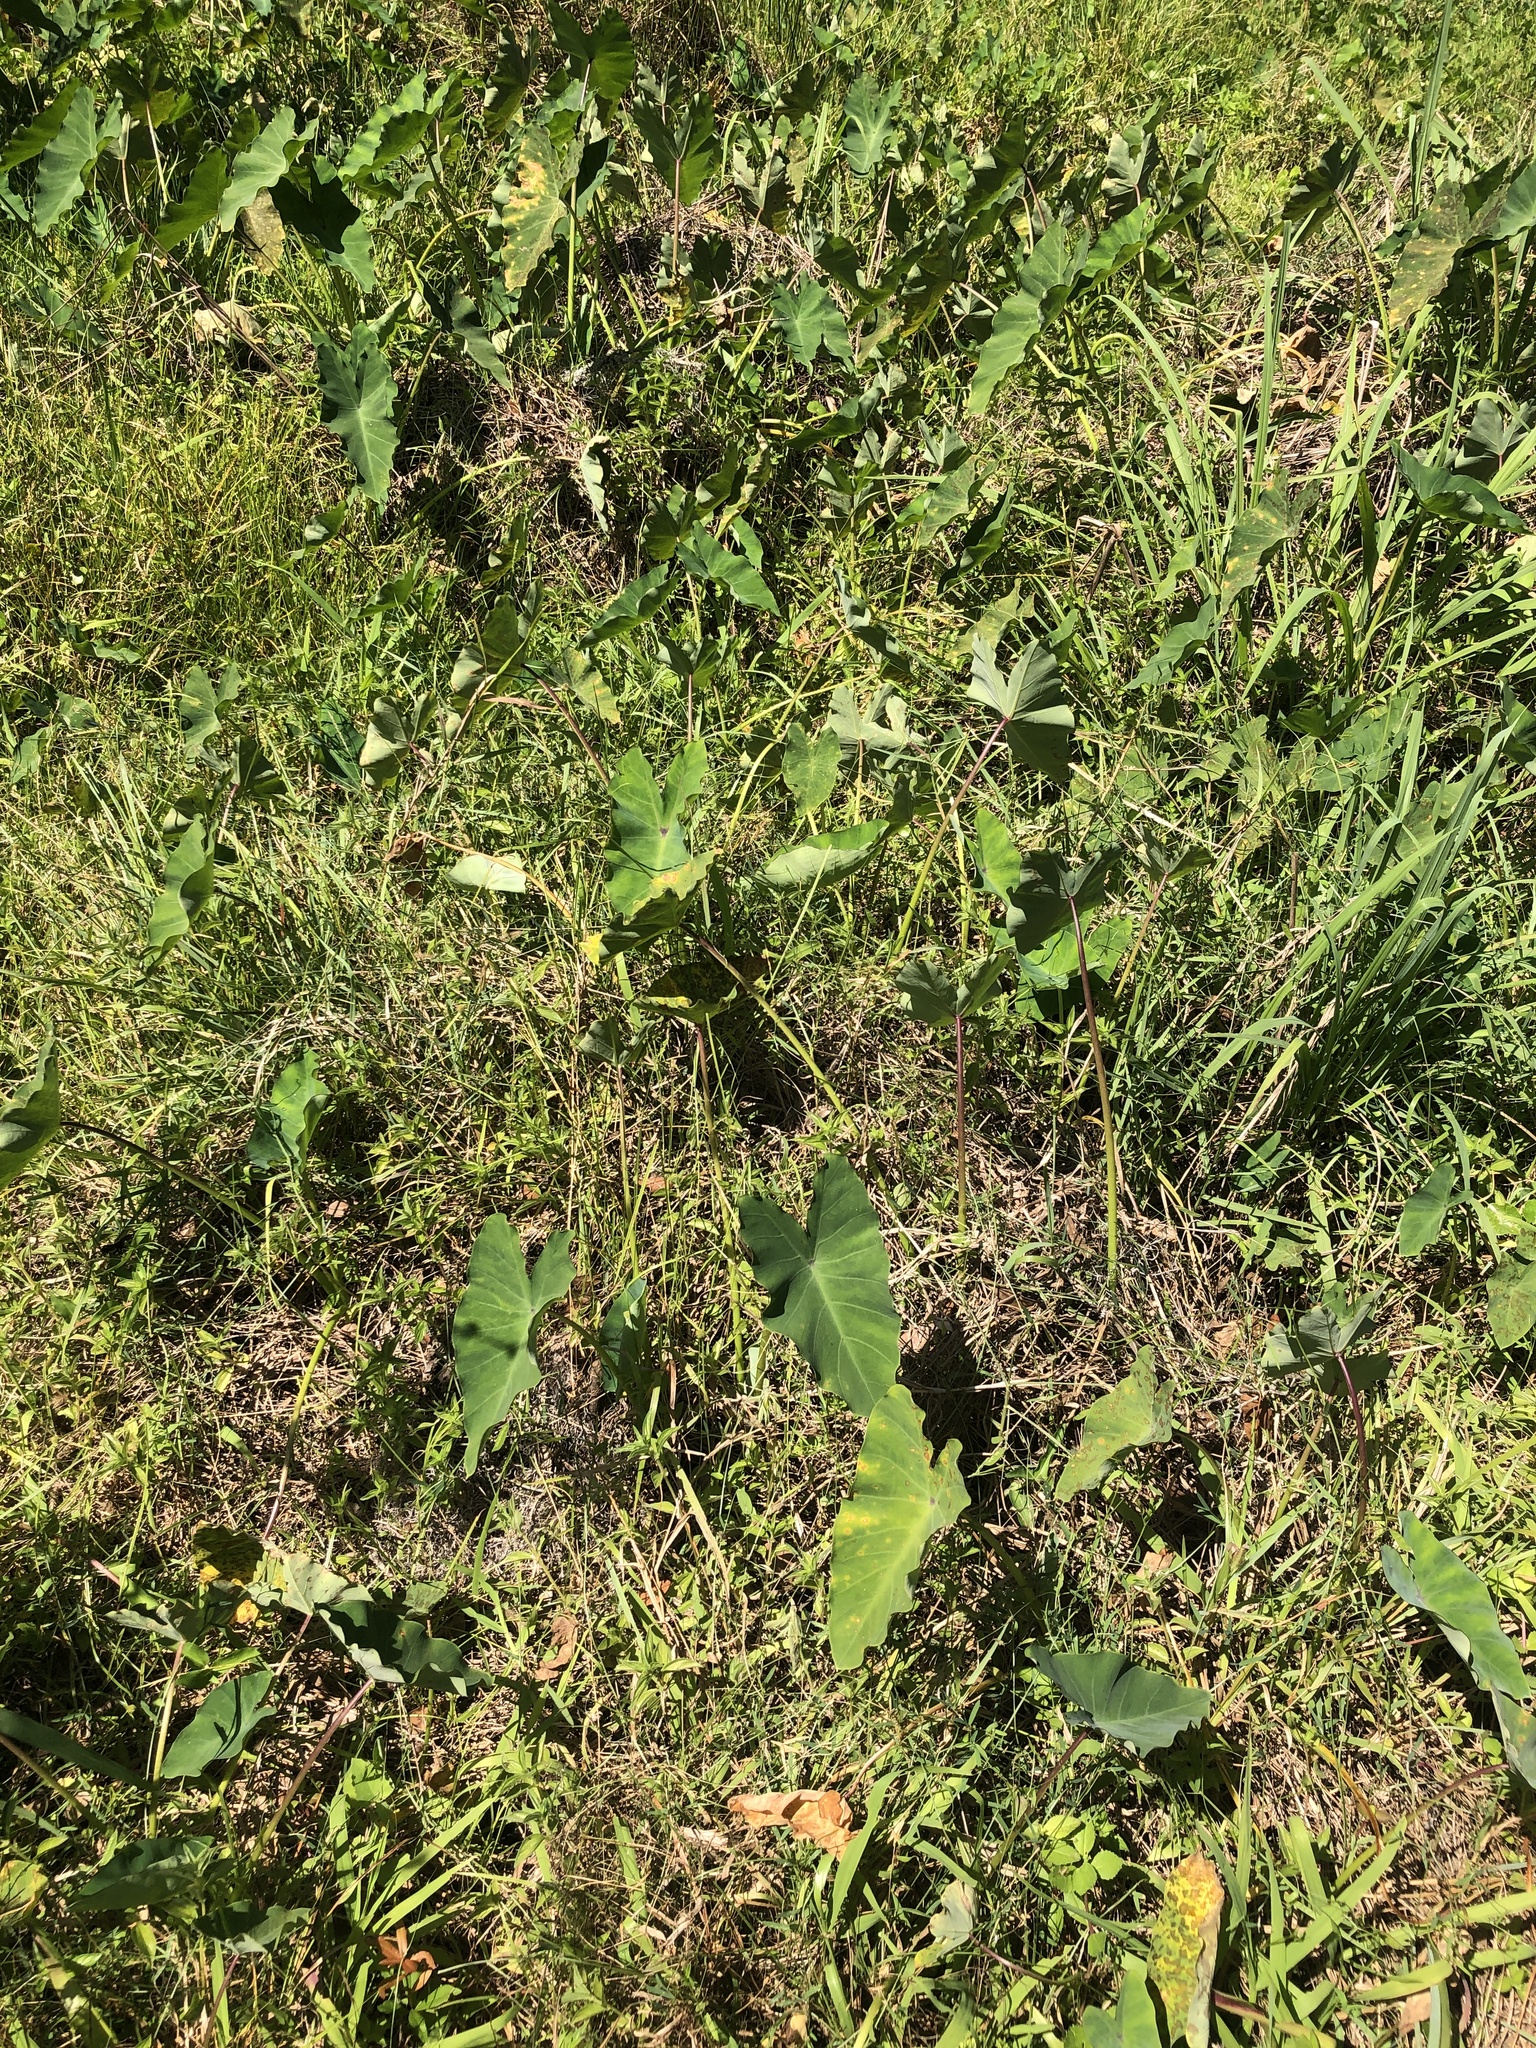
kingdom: Plantae
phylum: Tracheophyta
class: Liliopsida
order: Alismatales
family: Araceae
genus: Colocasia
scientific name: Colocasia esculenta
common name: Taro
